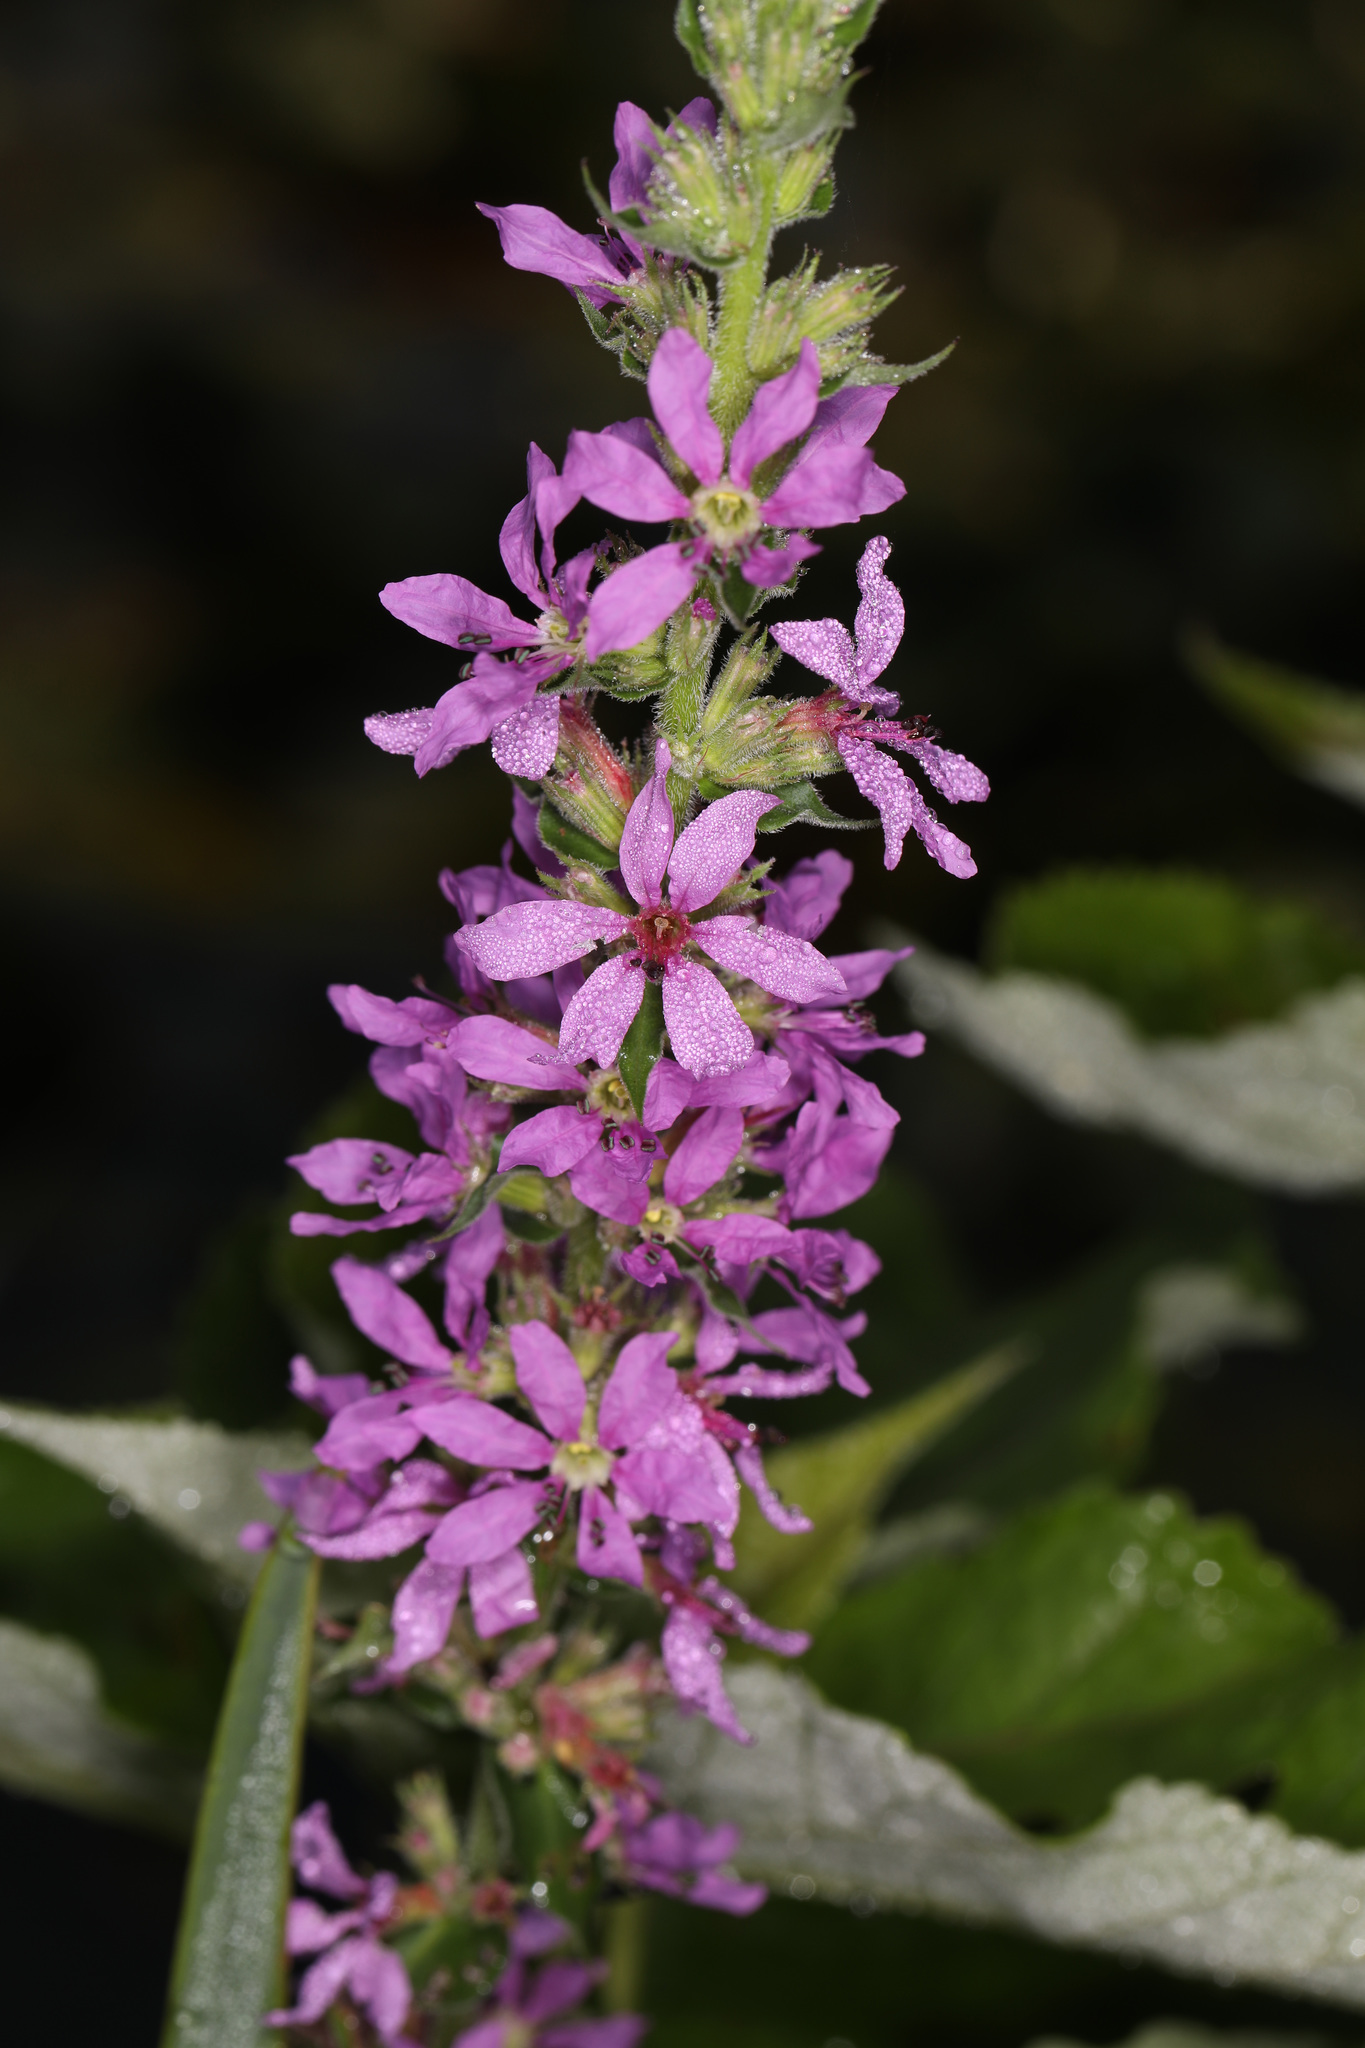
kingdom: Plantae
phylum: Tracheophyta
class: Magnoliopsida
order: Myrtales
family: Lythraceae
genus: Lythrum
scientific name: Lythrum salicaria
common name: Purple loosestrife
